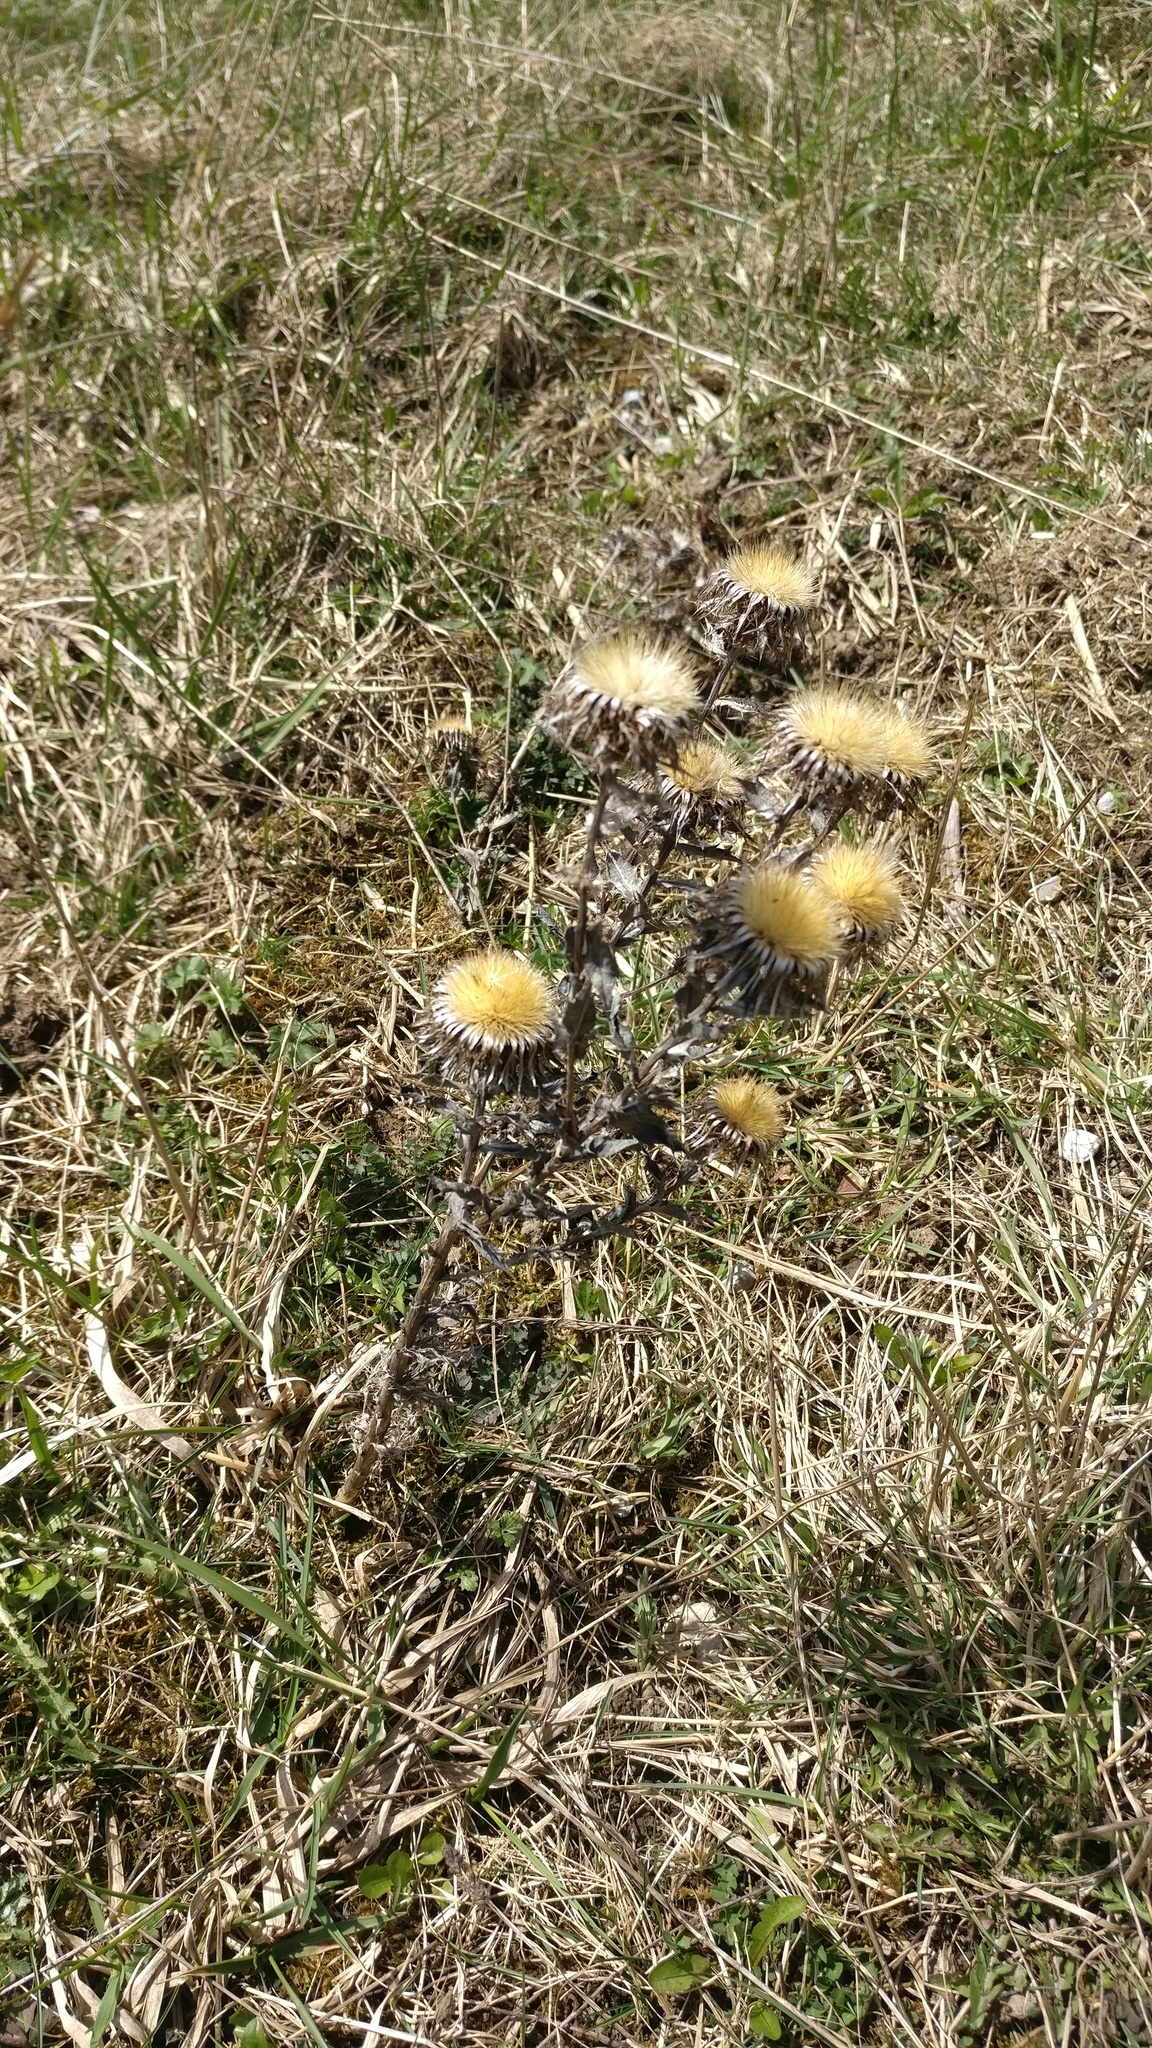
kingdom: Plantae
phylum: Tracheophyta
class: Magnoliopsida
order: Asterales
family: Asteraceae
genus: Carlina
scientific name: Carlina vulgaris
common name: Carline thistle
